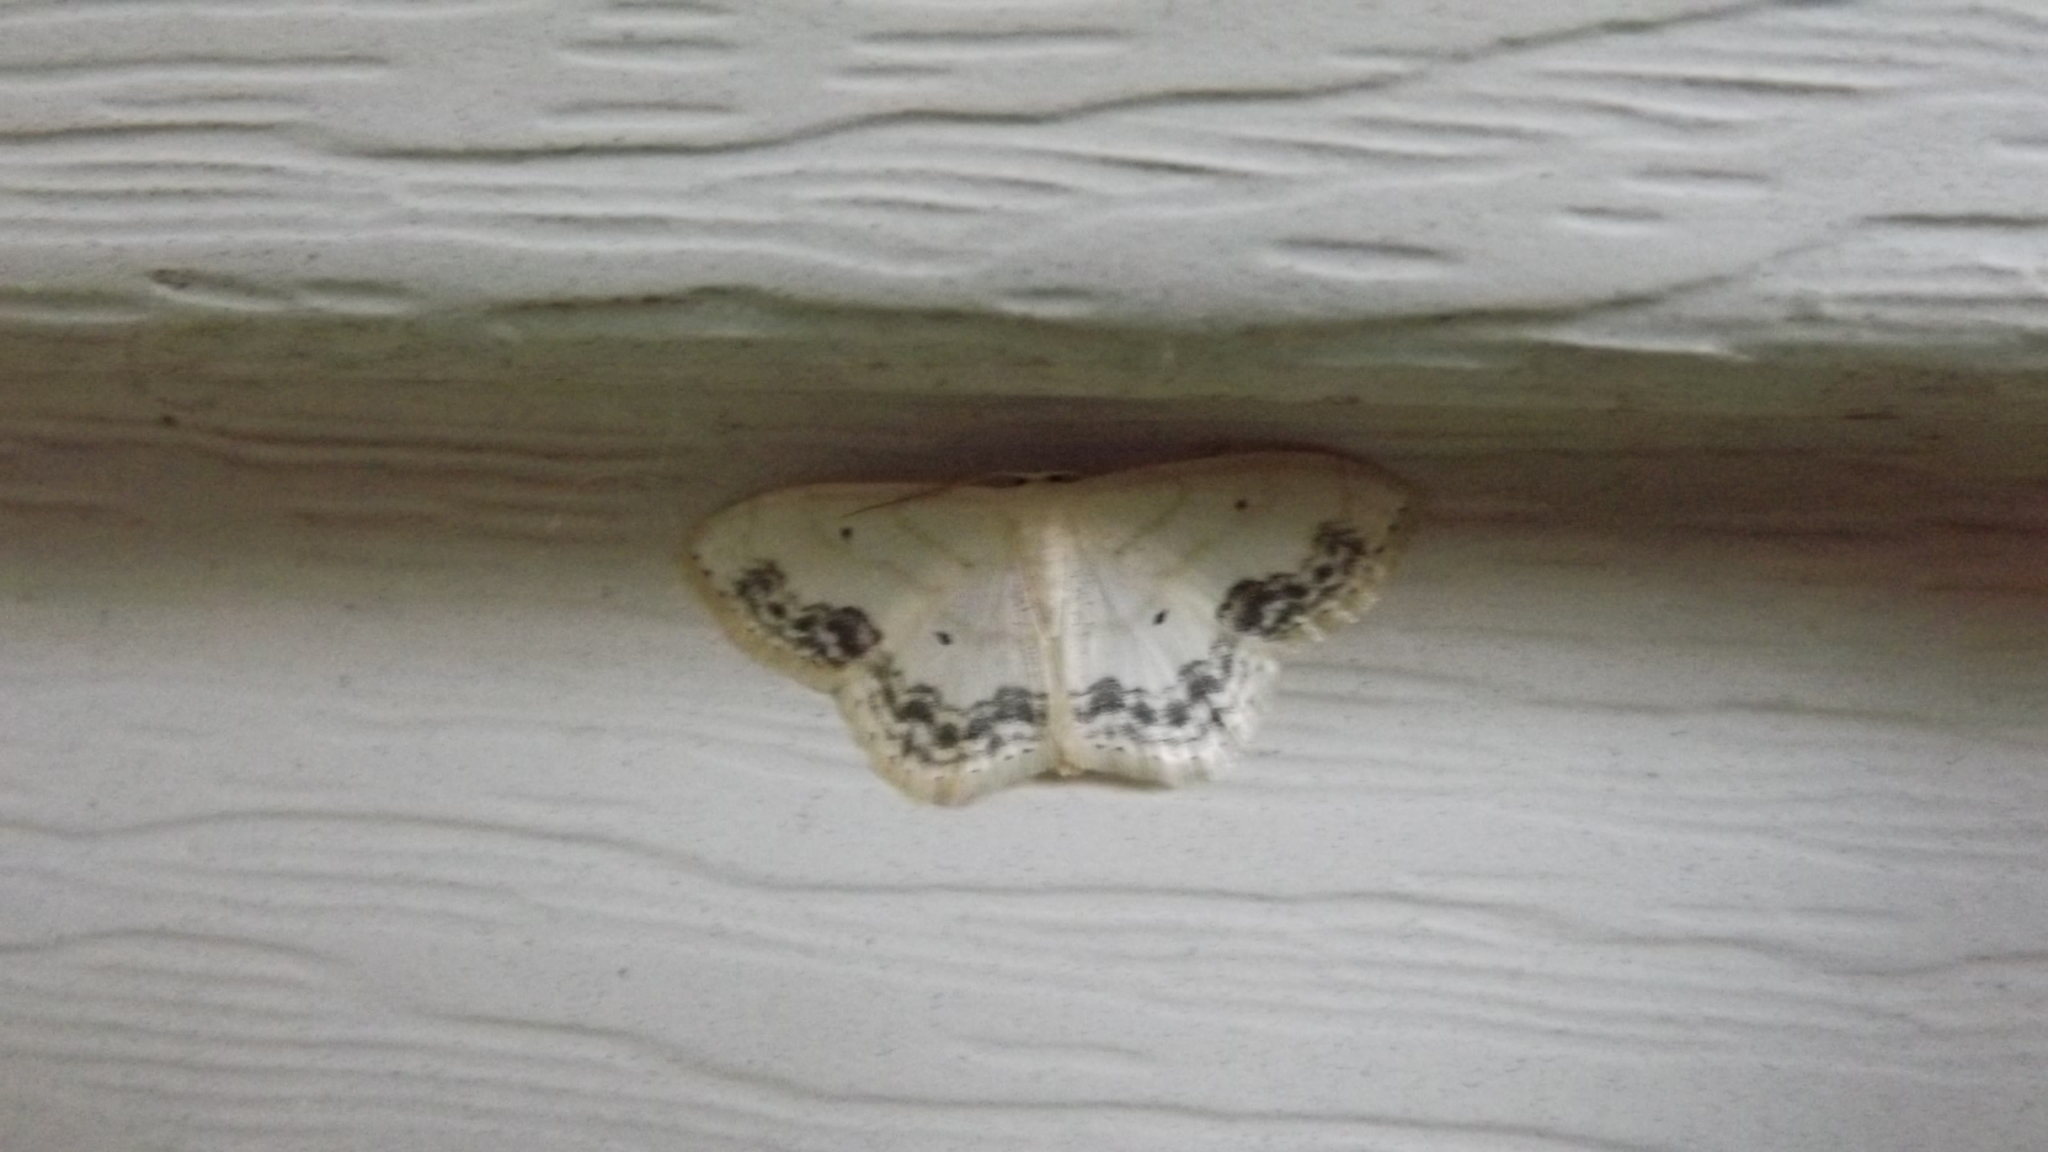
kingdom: Animalia
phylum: Arthropoda
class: Insecta
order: Lepidoptera
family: Geometridae
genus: Scopula
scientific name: Scopula limboundata
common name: Large lace border
